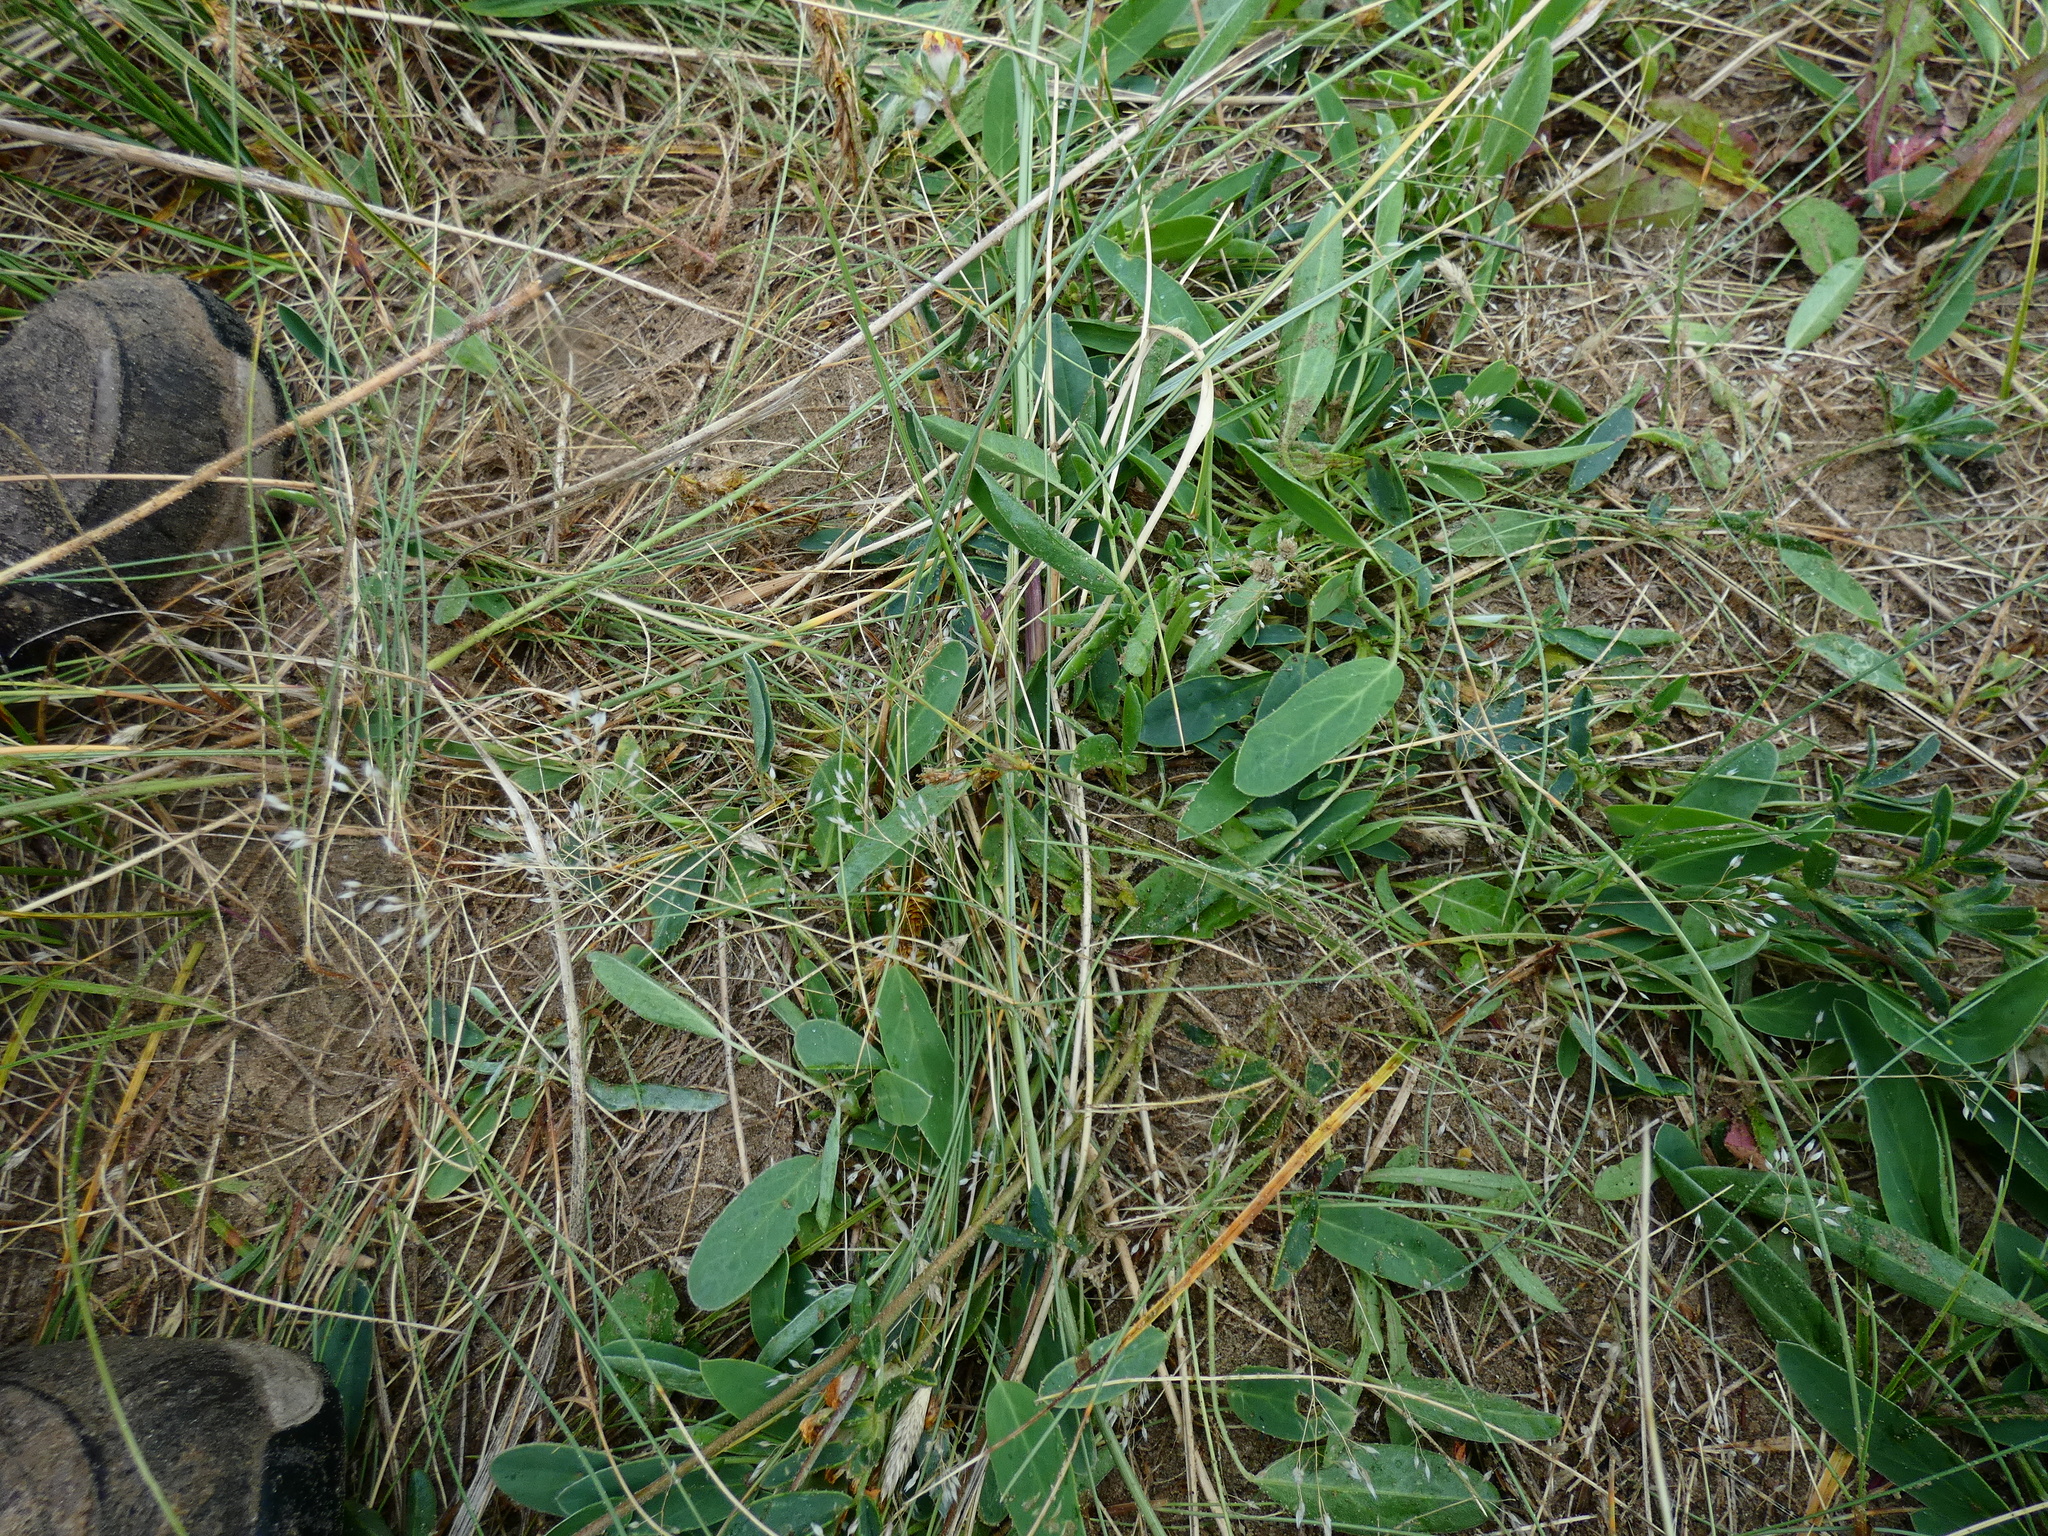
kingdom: Plantae
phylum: Tracheophyta
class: Liliopsida
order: Poales
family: Poaceae
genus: Aira
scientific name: Aira caryophyllea
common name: Silver hairgrass
